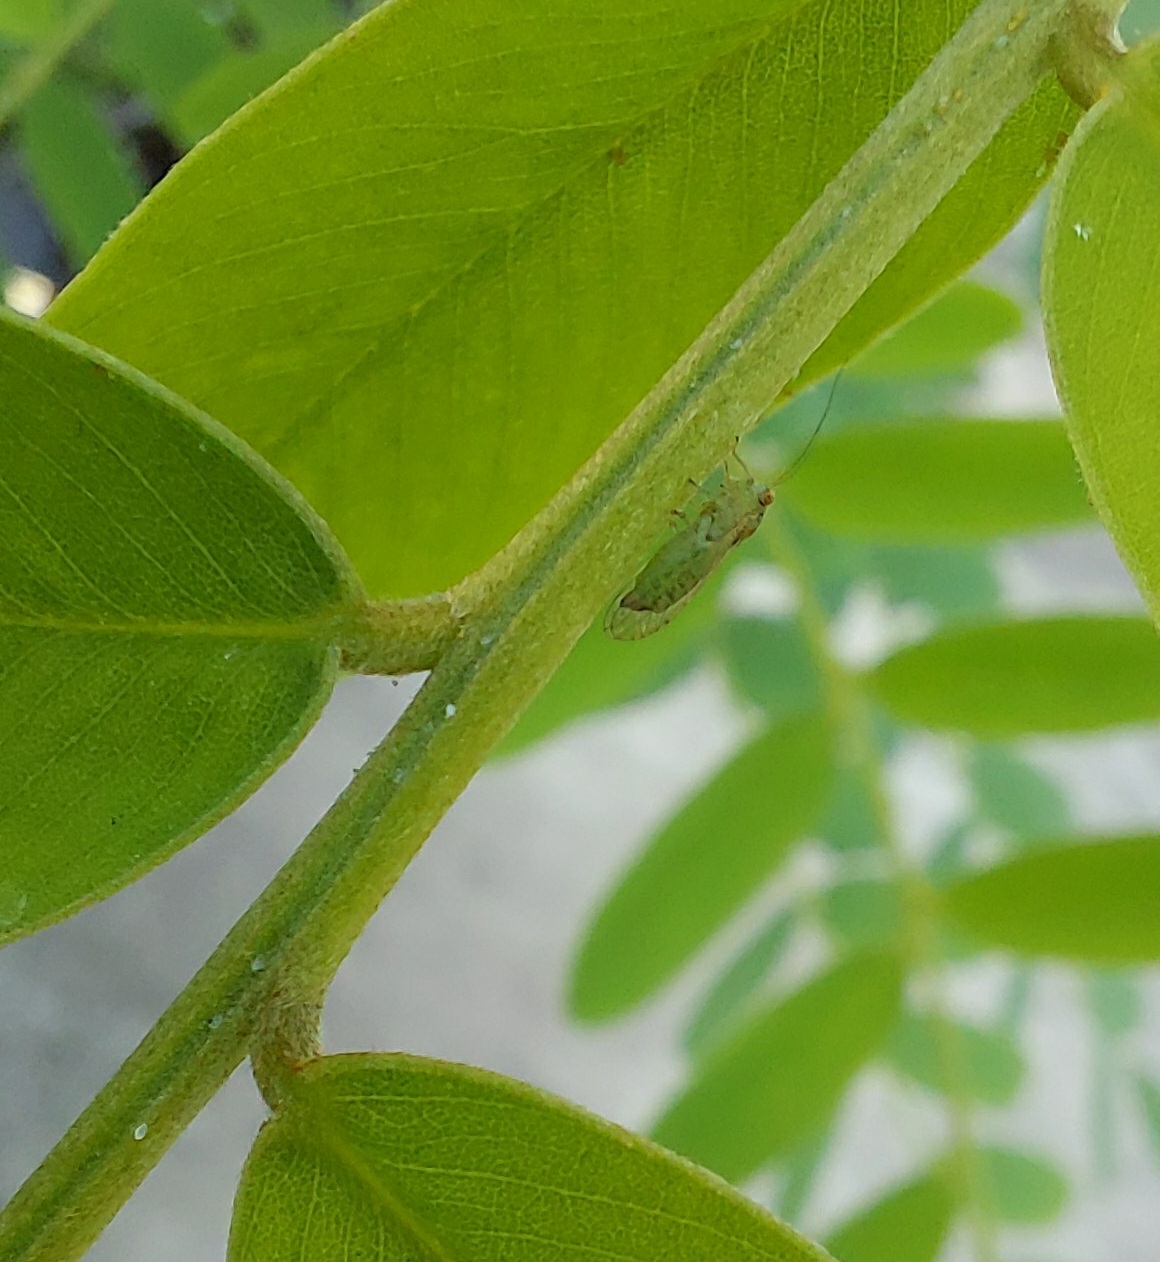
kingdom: Animalia
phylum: Arthropoda
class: Insecta
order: Hemiptera
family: Psyllidae
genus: Platycorypha
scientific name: Platycorypha nigrivirga
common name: Tipu psyllid
